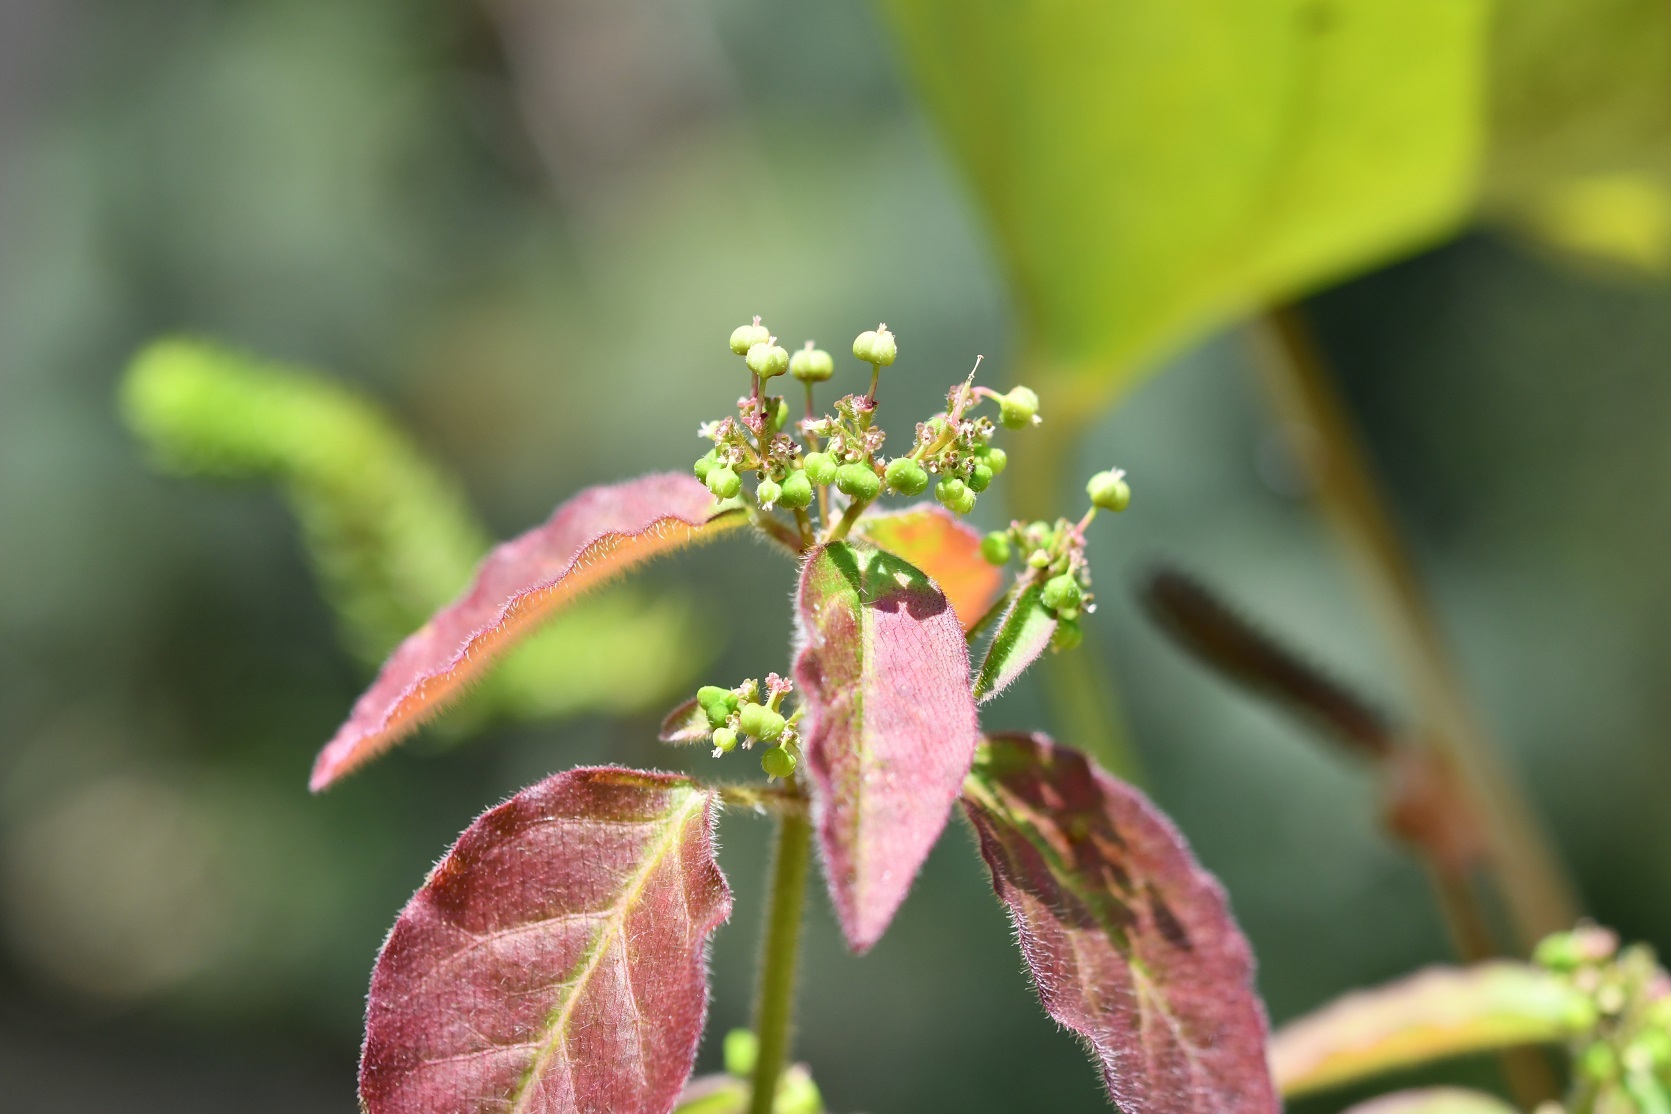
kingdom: Plantae
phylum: Tracheophyta
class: Magnoliopsida
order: Malpighiales
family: Euphorbiaceae
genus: Euphorbia
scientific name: Euphorbia xalapensis
